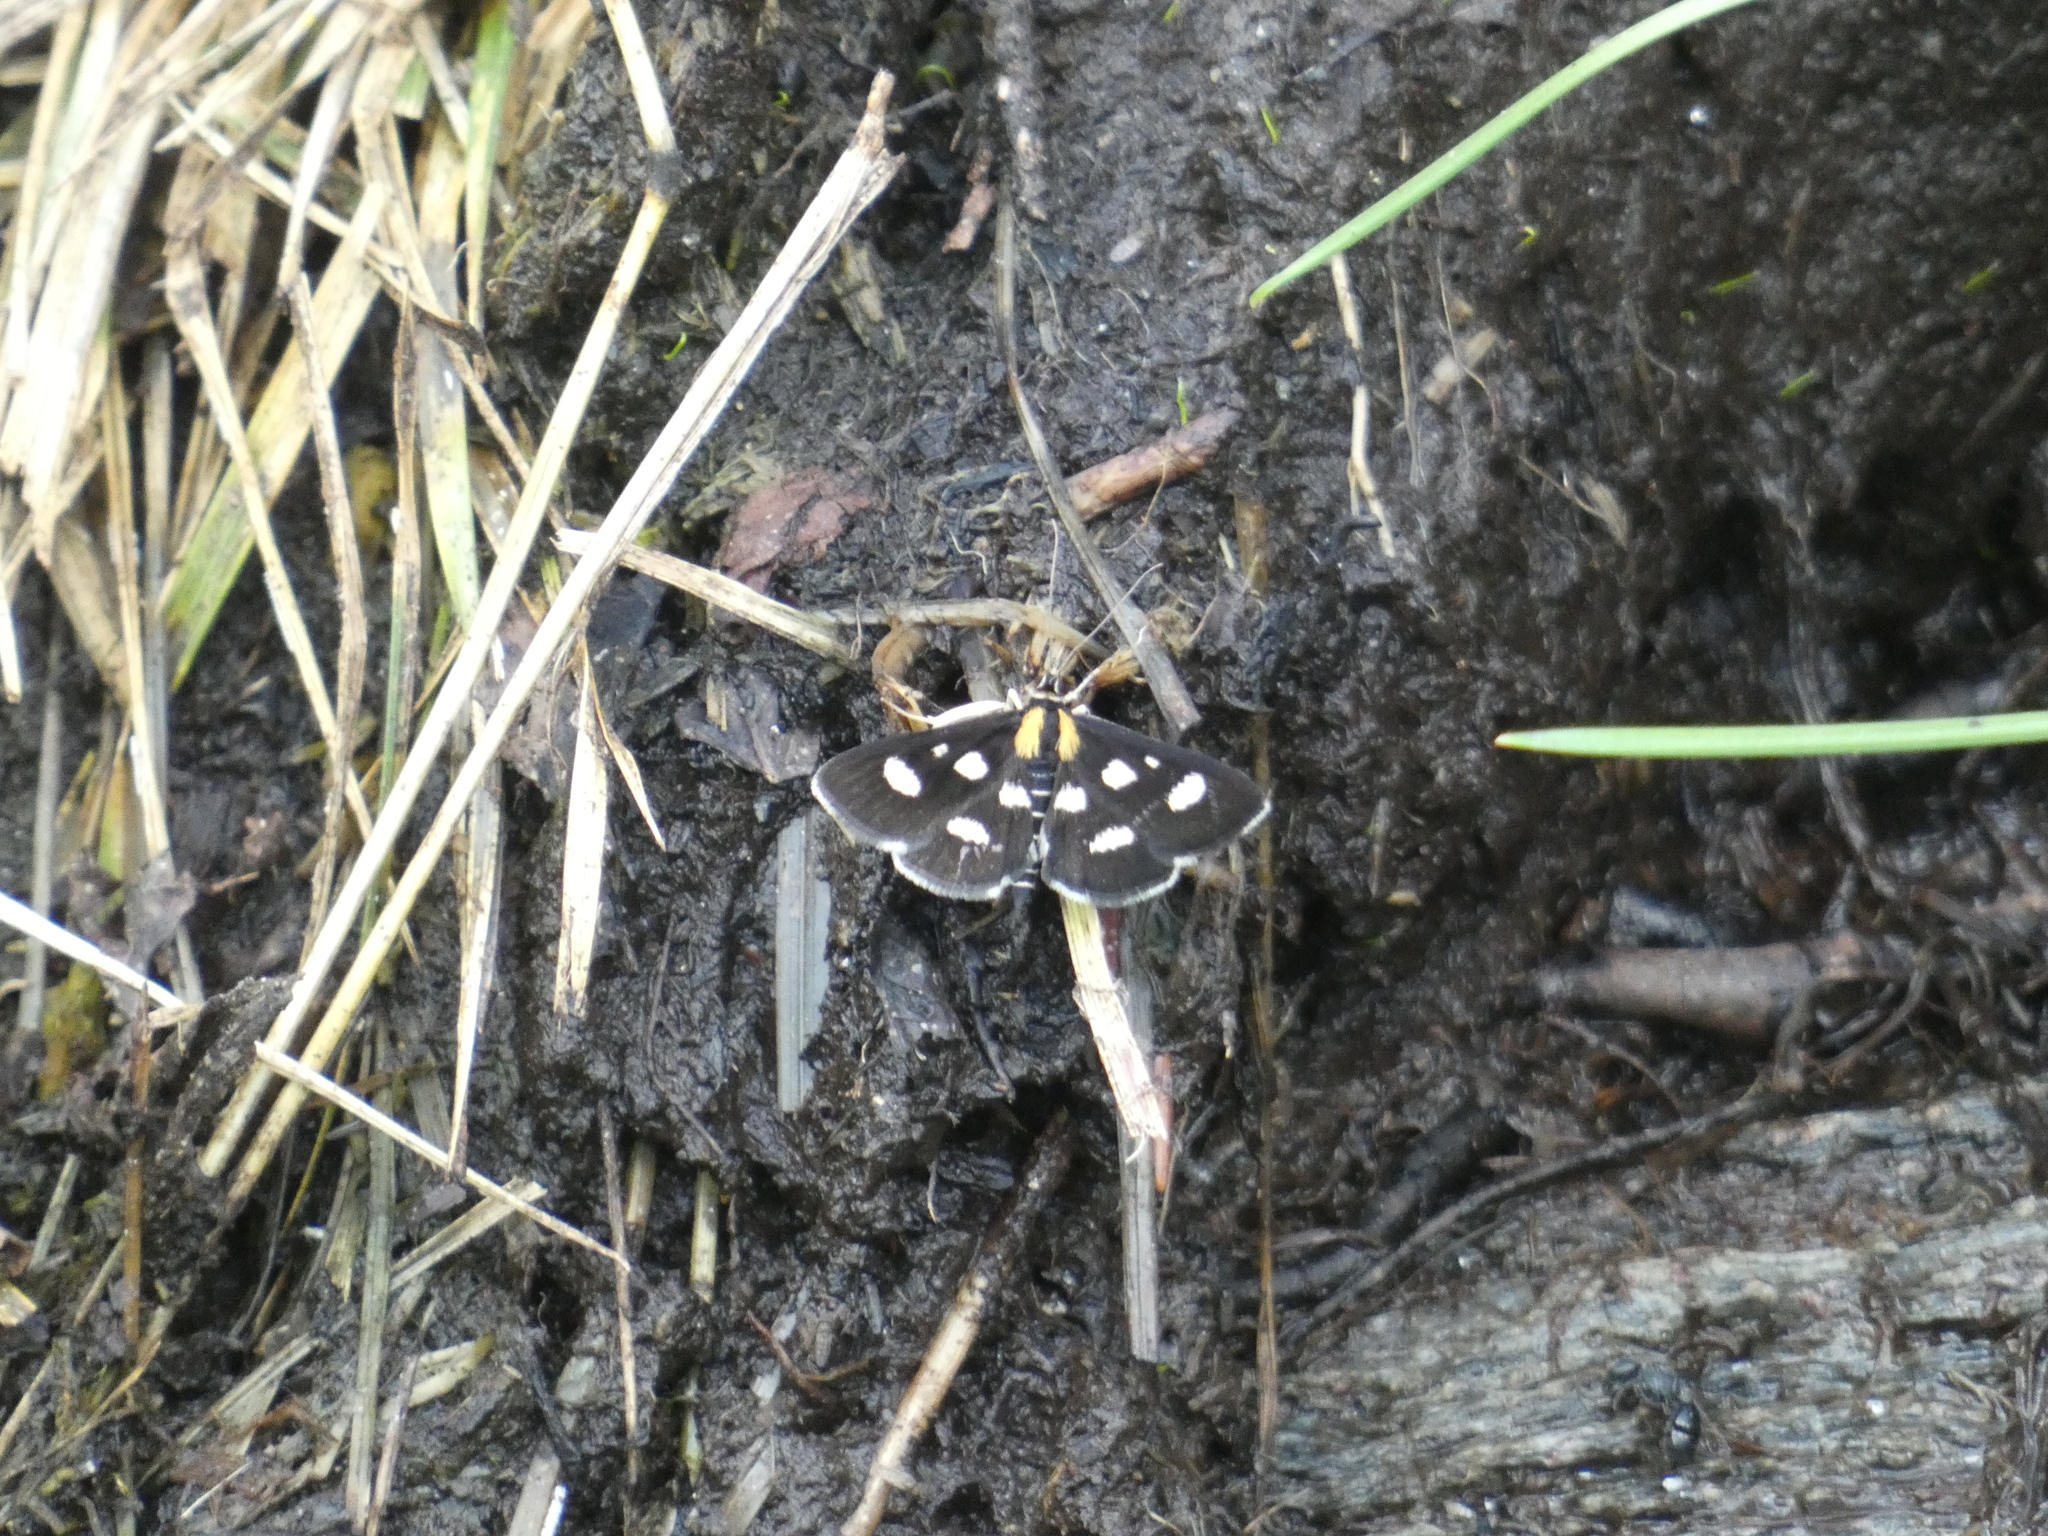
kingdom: Animalia
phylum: Arthropoda
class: Insecta
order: Lepidoptera
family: Crambidae
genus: Anania
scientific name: Anania funebris
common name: White-spotted sable moth
